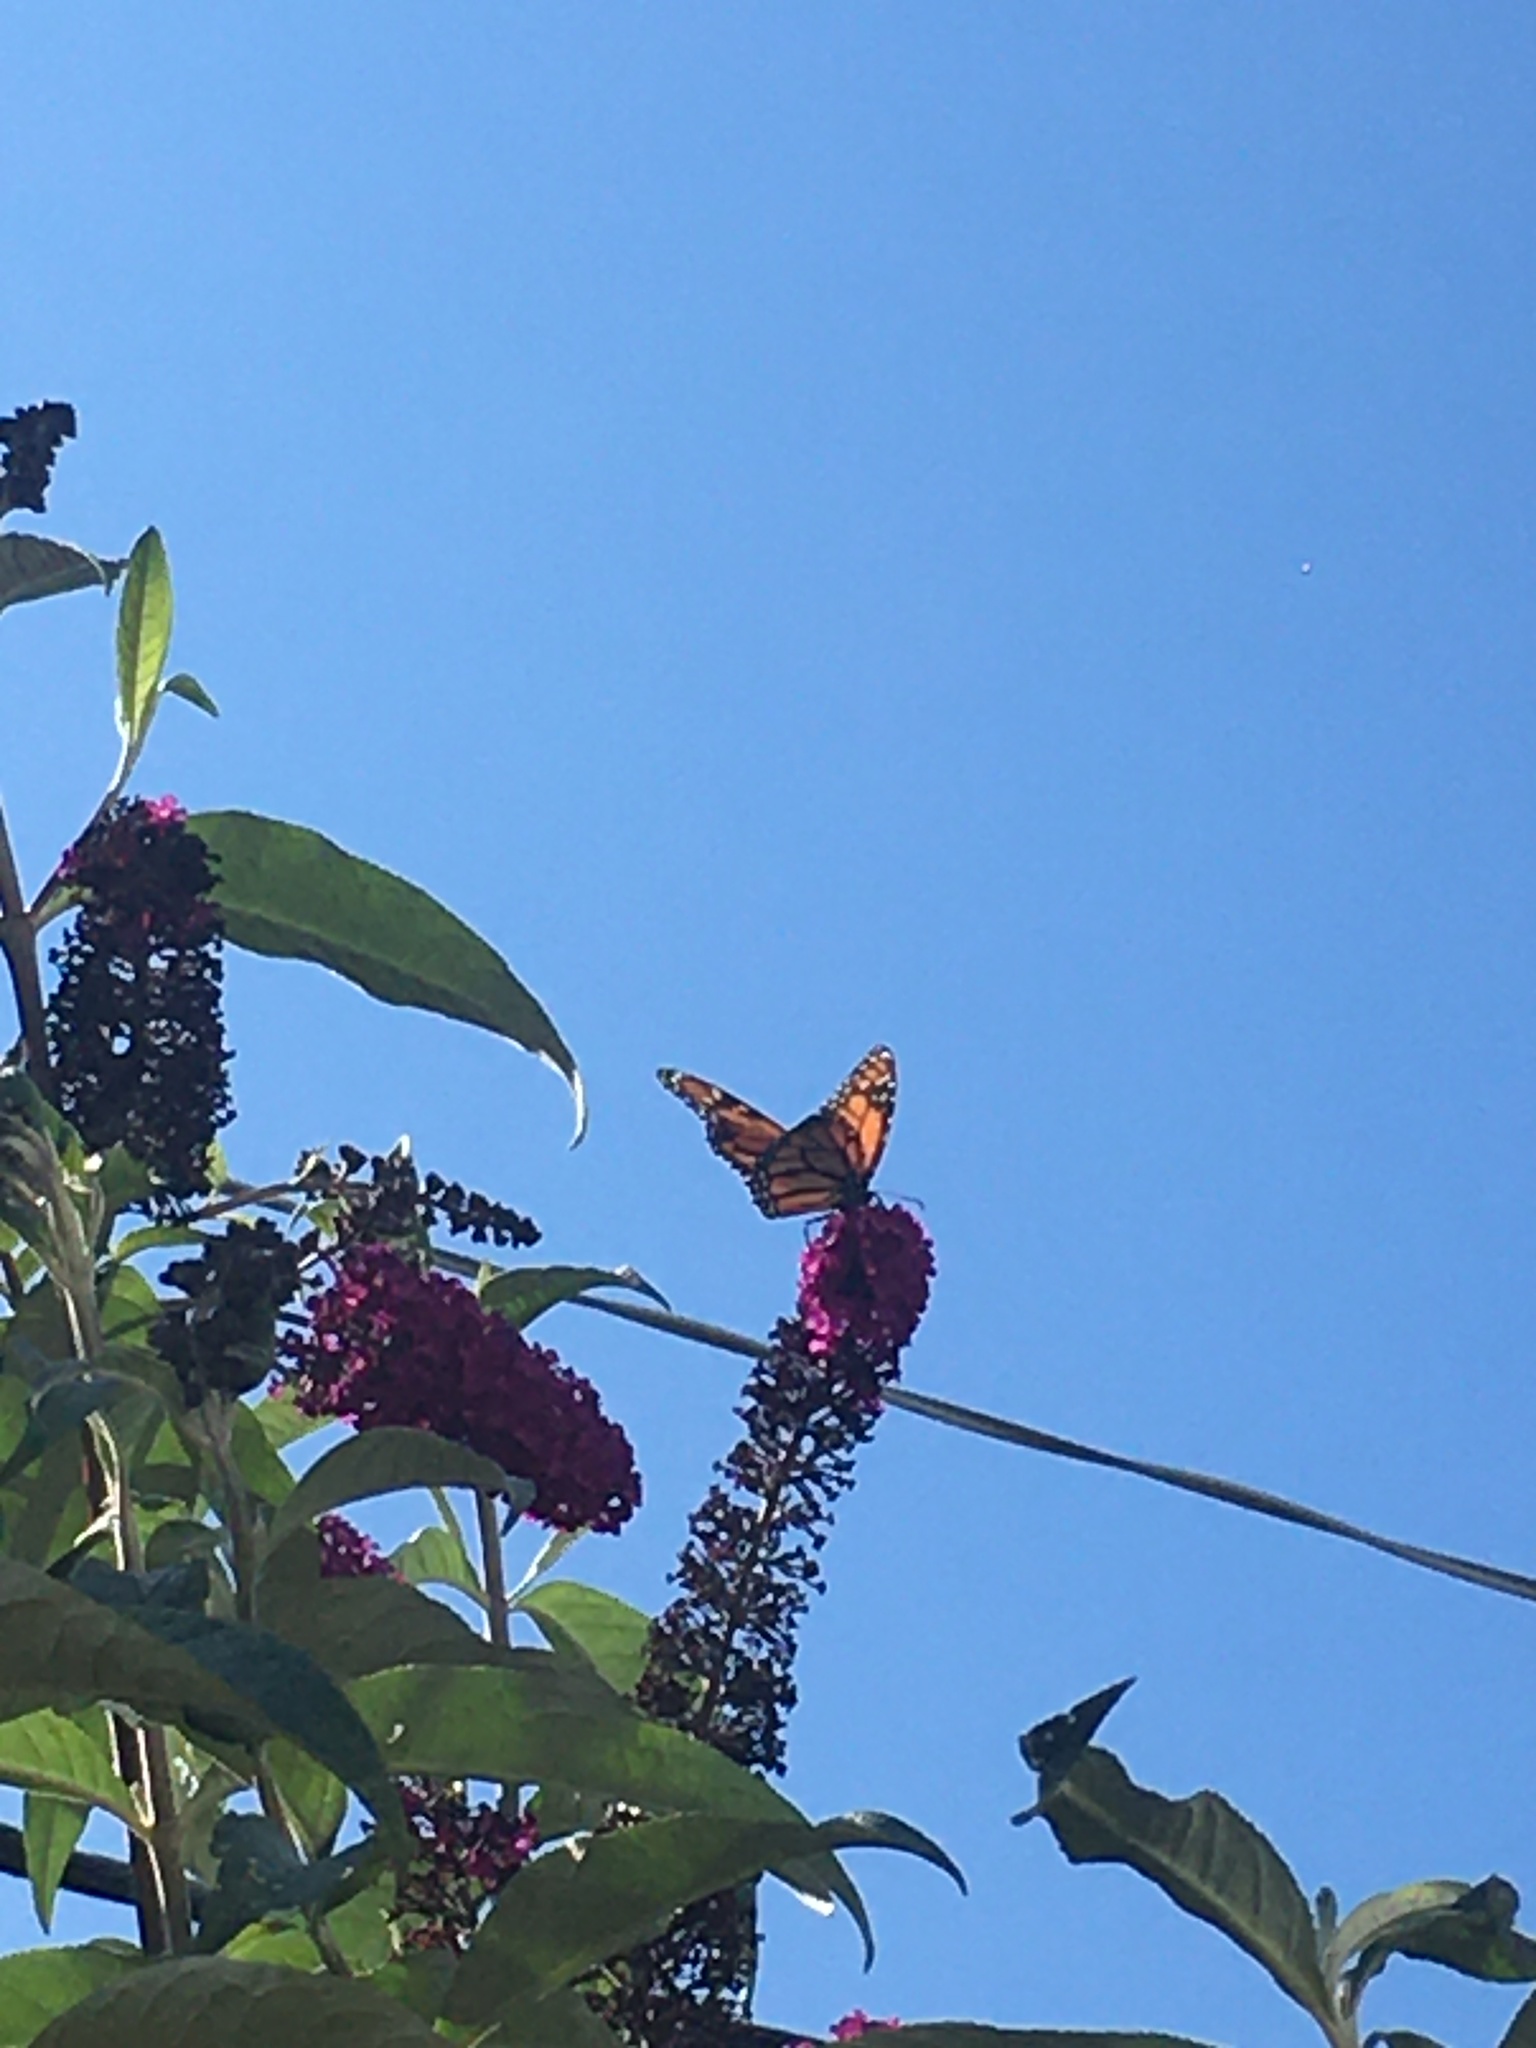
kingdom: Animalia
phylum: Arthropoda
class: Insecta
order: Lepidoptera
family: Nymphalidae
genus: Danaus
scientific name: Danaus plexippus
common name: Monarch
